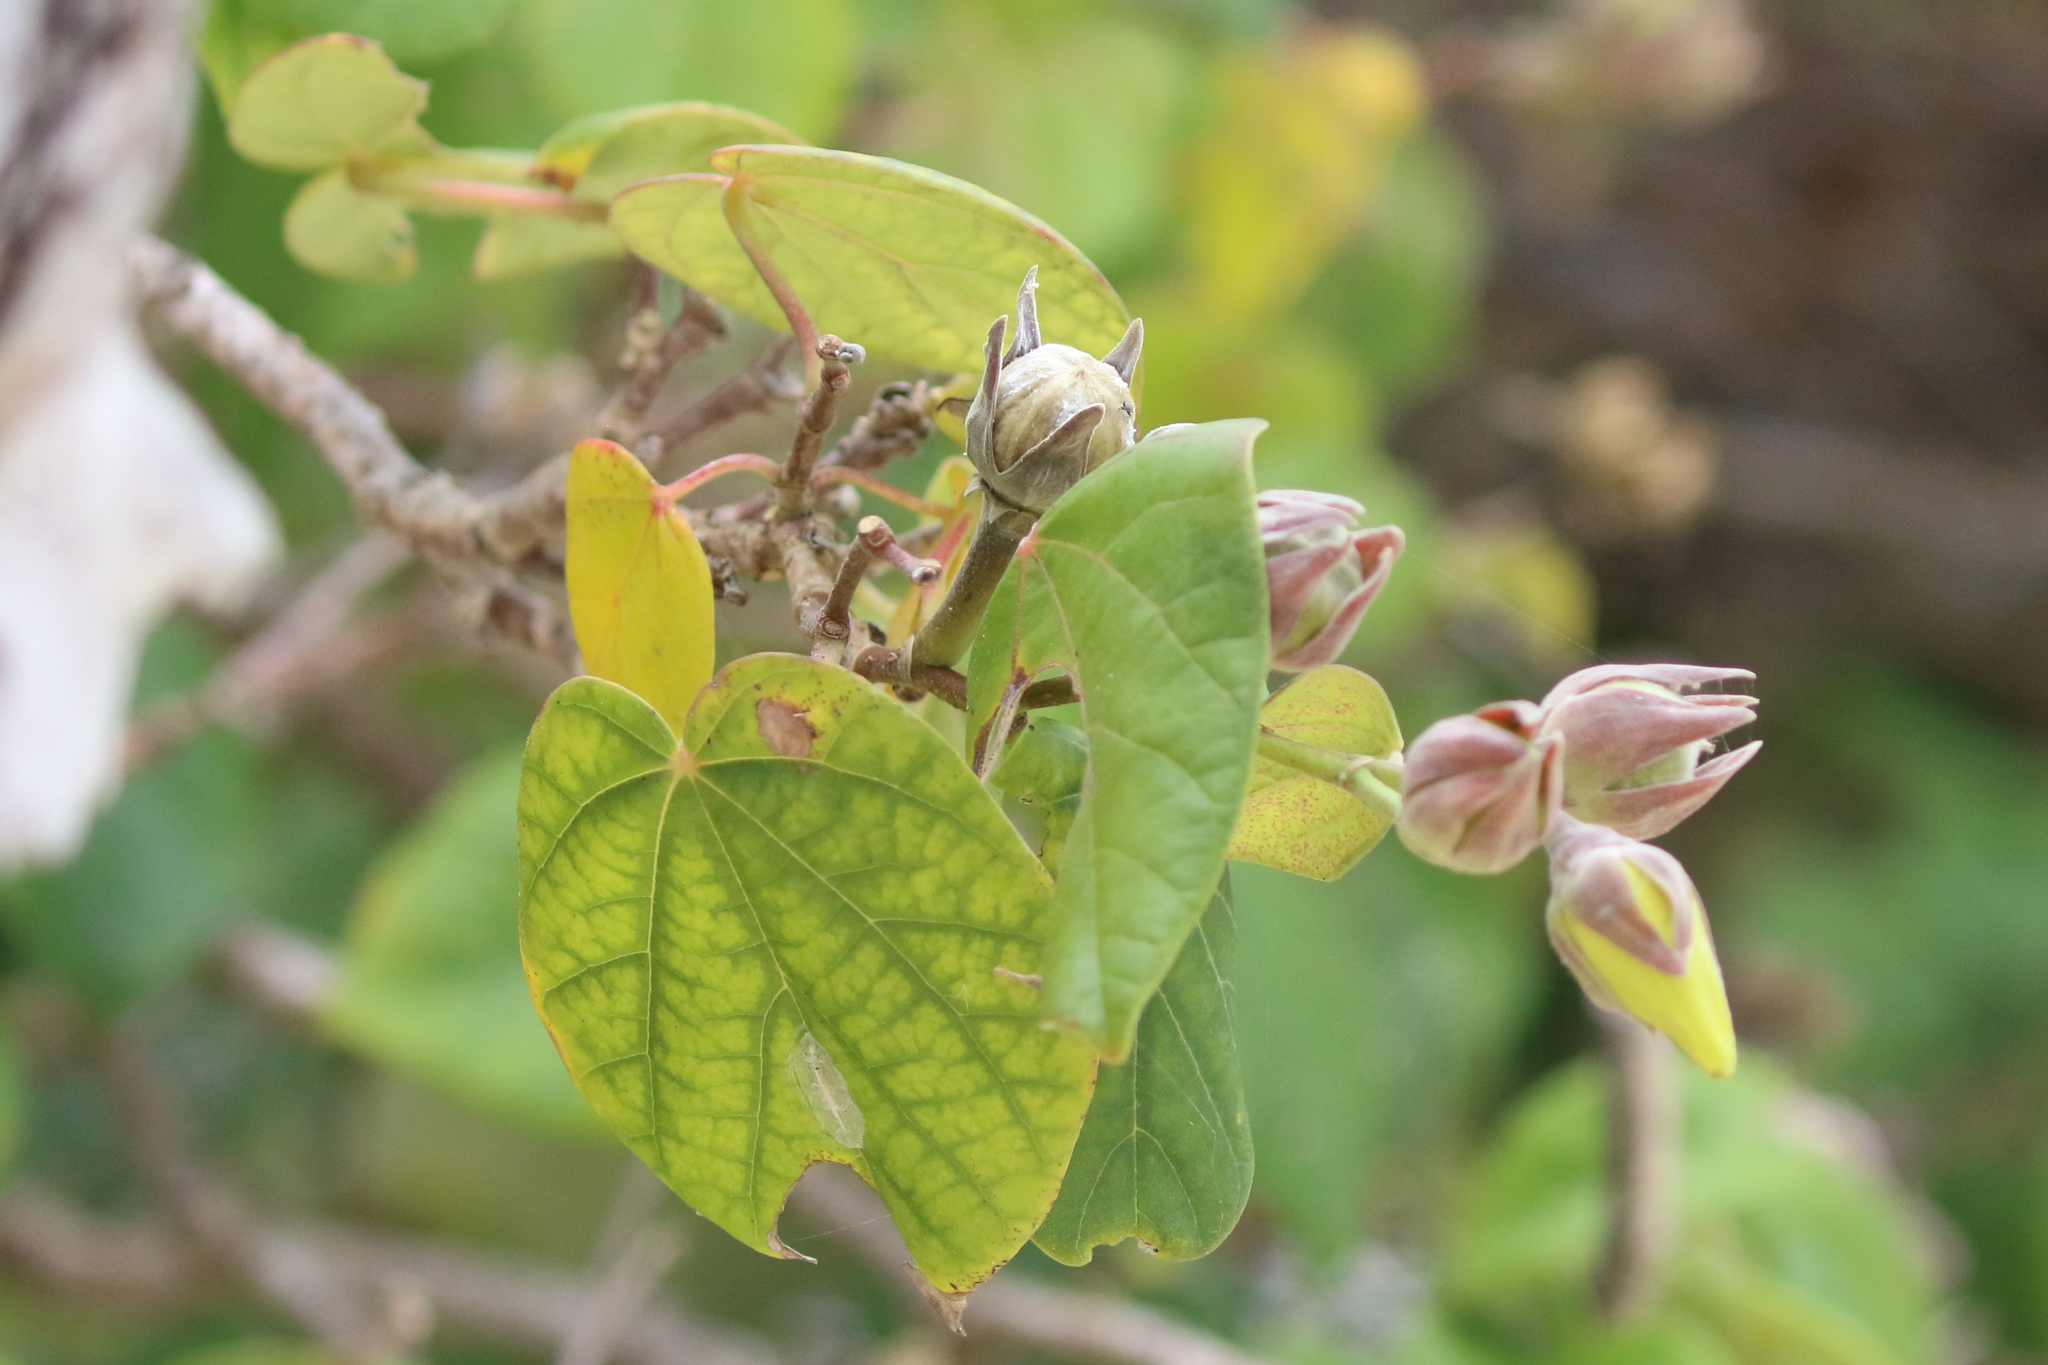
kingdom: Plantae
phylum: Tracheophyta
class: Magnoliopsida
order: Malvales
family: Malvaceae
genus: Talipariti
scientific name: Talipariti tiliaceum
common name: Sea hibiscus
